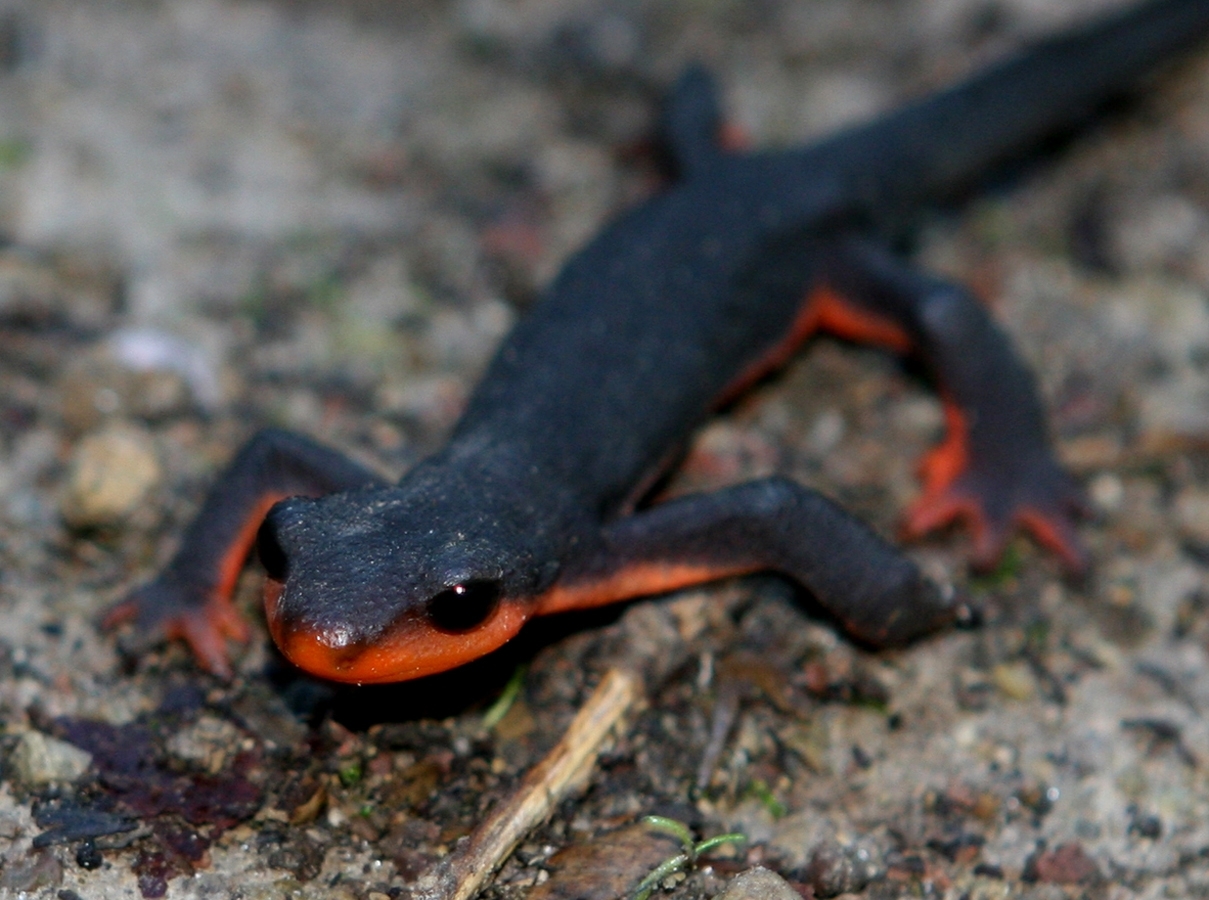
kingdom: Animalia
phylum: Chordata
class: Amphibia
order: Caudata
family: Salamandridae
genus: Taricha
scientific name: Taricha rivularis
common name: Red-bellied newt
